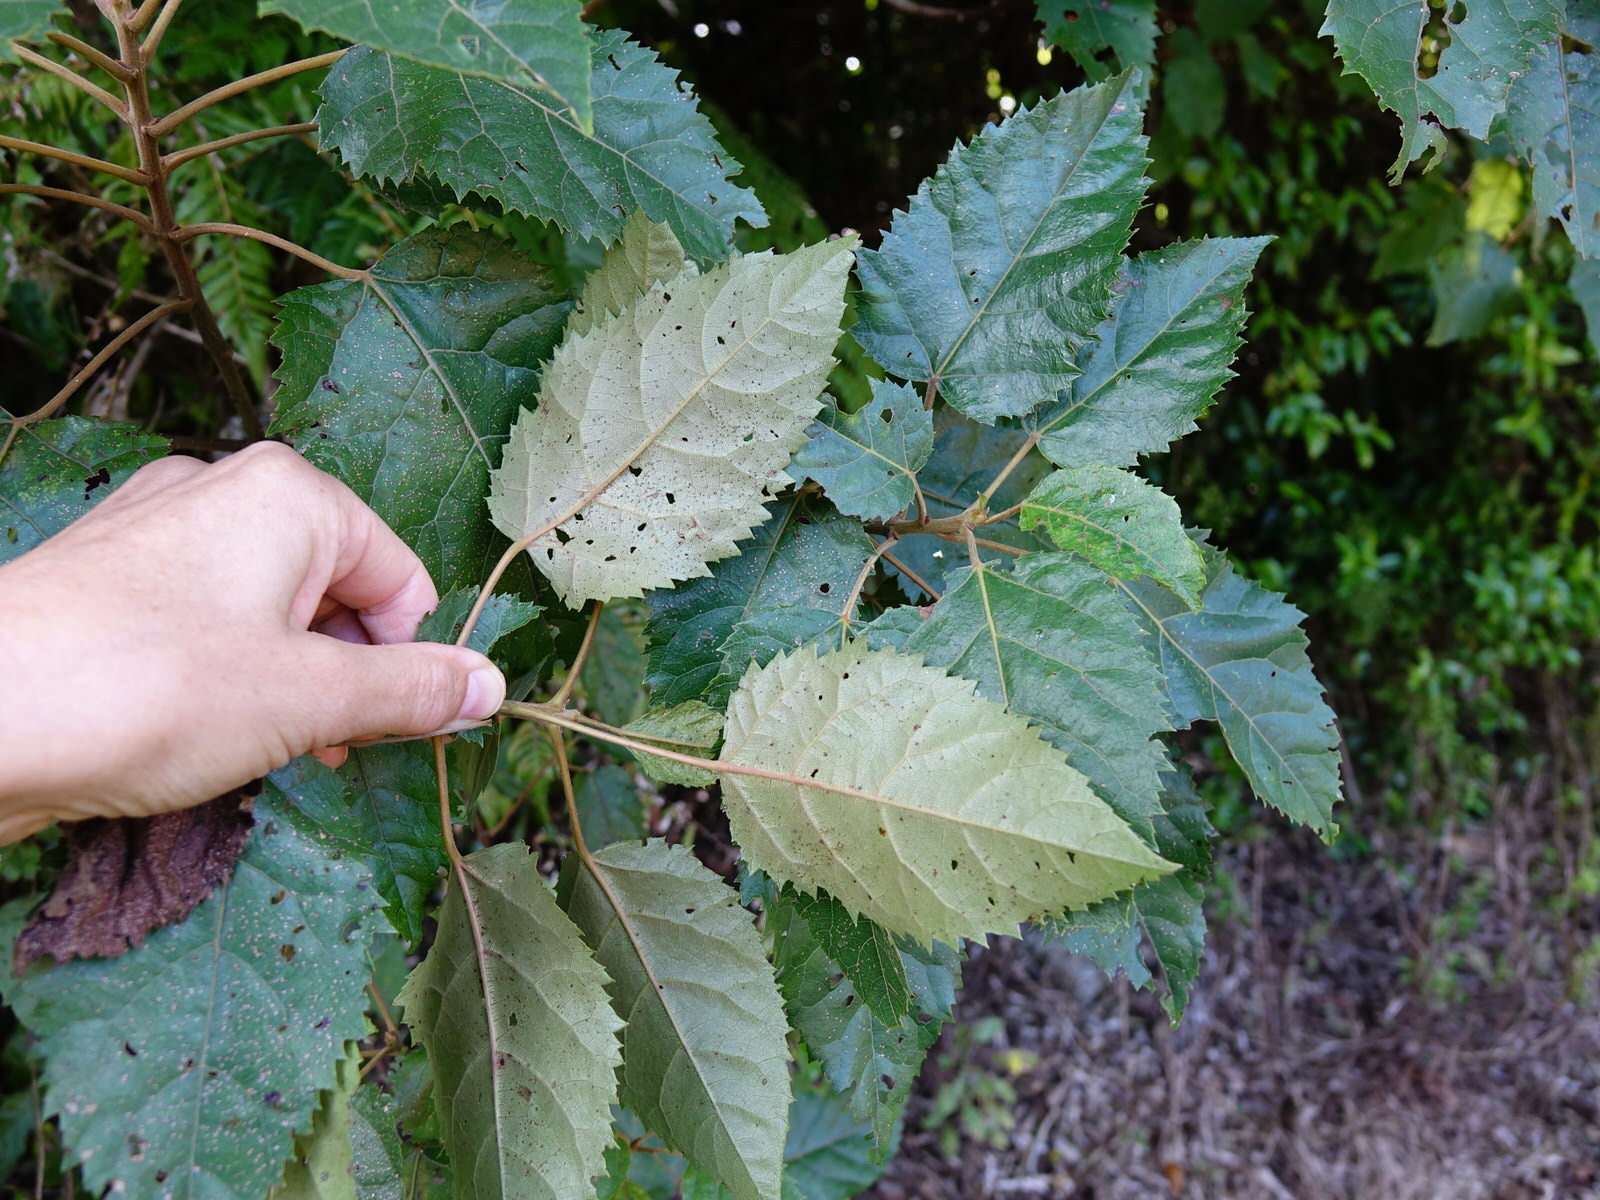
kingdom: Plantae
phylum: Tracheophyta
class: Magnoliopsida
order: Oxalidales
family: Elaeocarpaceae
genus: Aristotelia
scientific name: Aristotelia serrata
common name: New zealand wineberry
